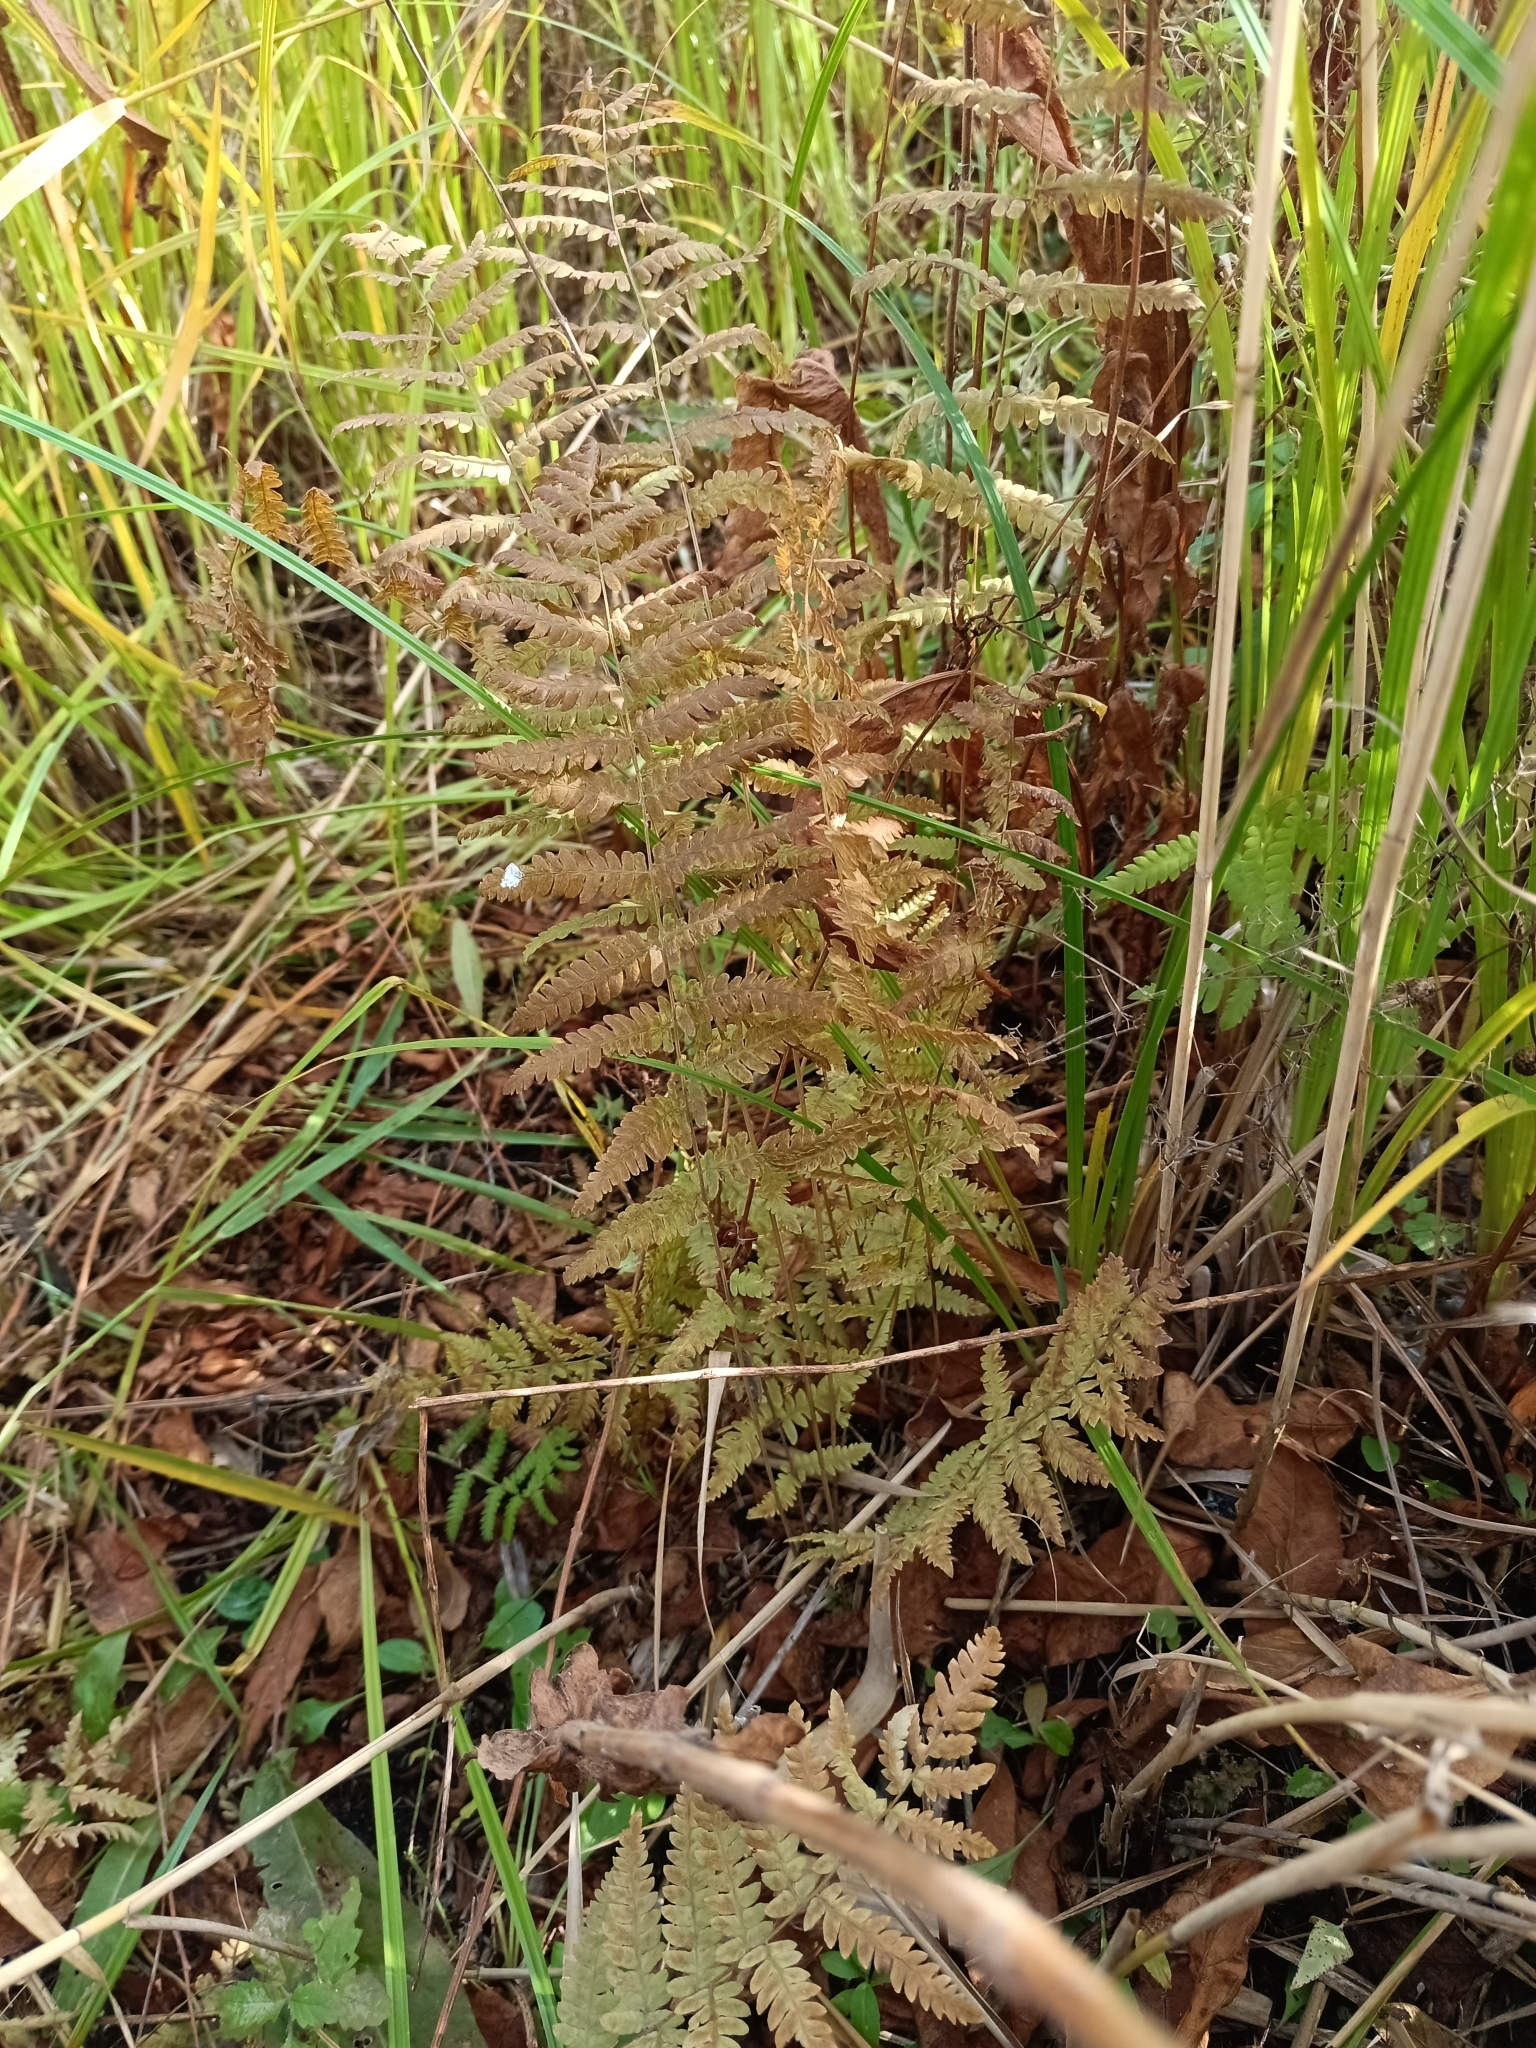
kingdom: Plantae
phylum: Tracheophyta
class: Polypodiopsida
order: Polypodiales
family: Thelypteridaceae
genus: Thelypteris
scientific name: Thelypteris palustris
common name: Marsh fern
